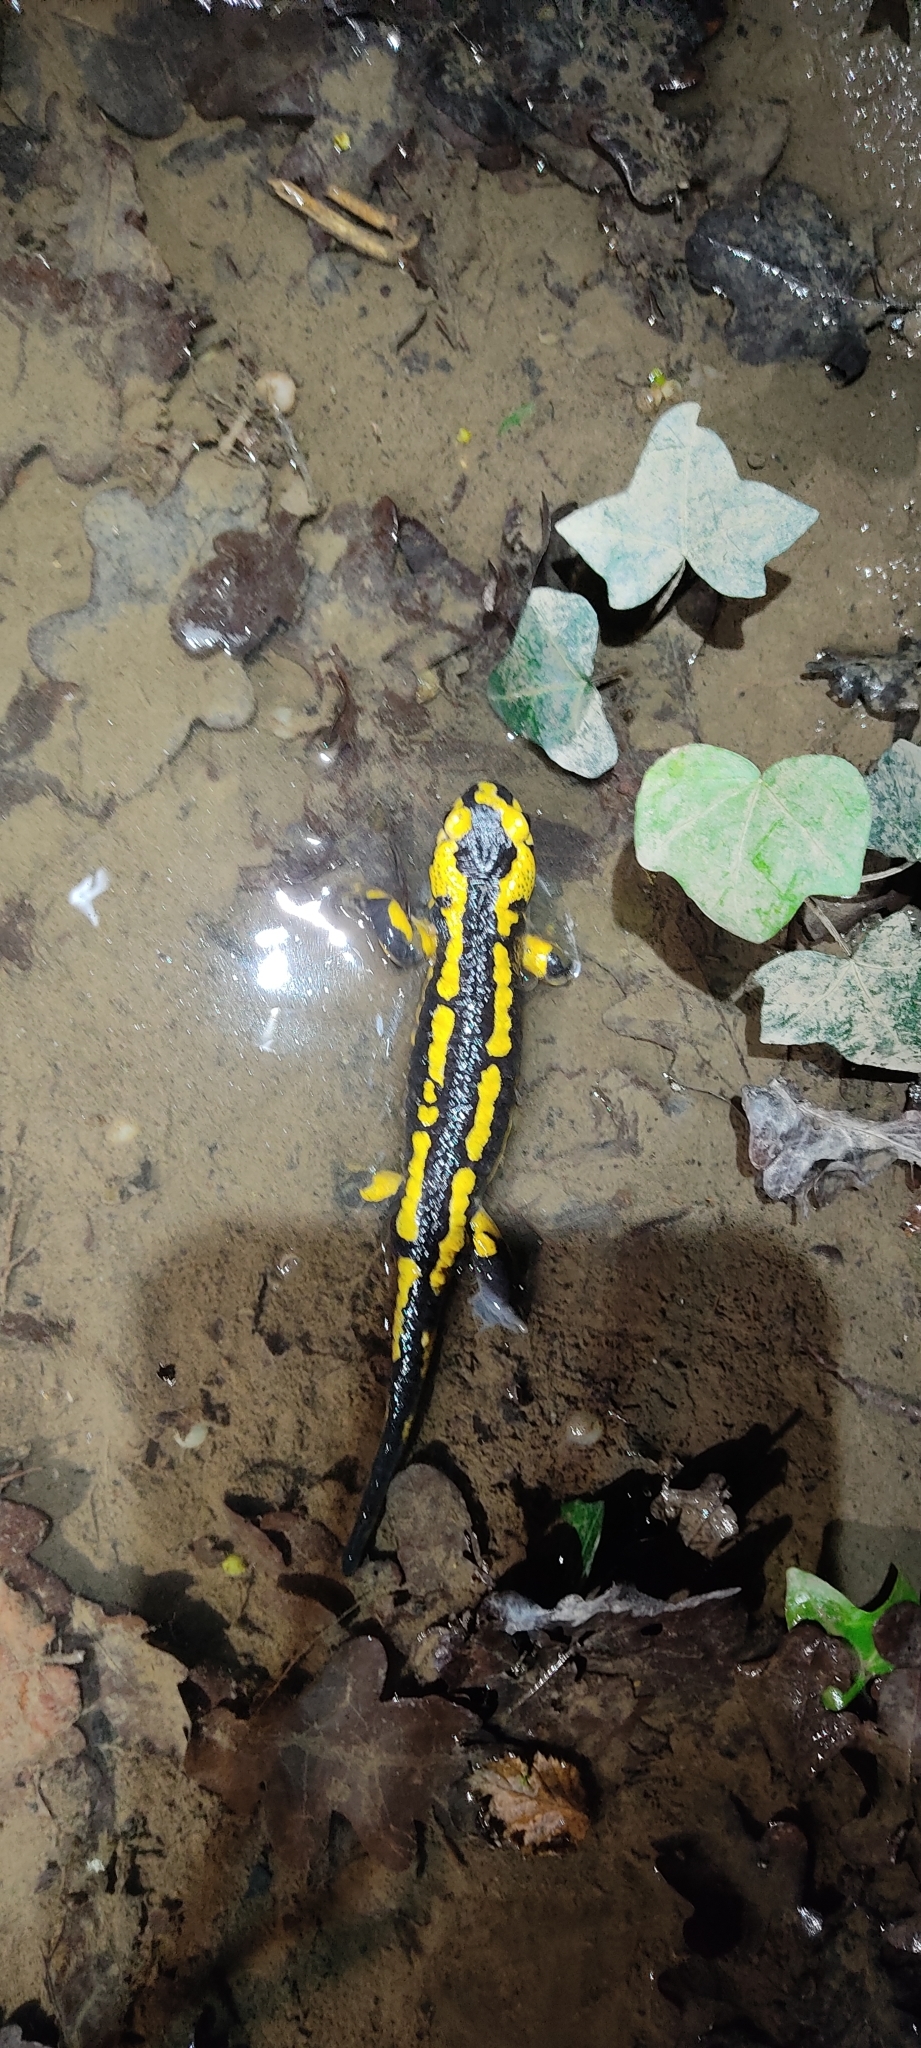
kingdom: Animalia
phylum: Chordata
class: Amphibia
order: Caudata
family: Salamandridae
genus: Salamandra
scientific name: Salamandra salamandra
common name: Fire salamander
